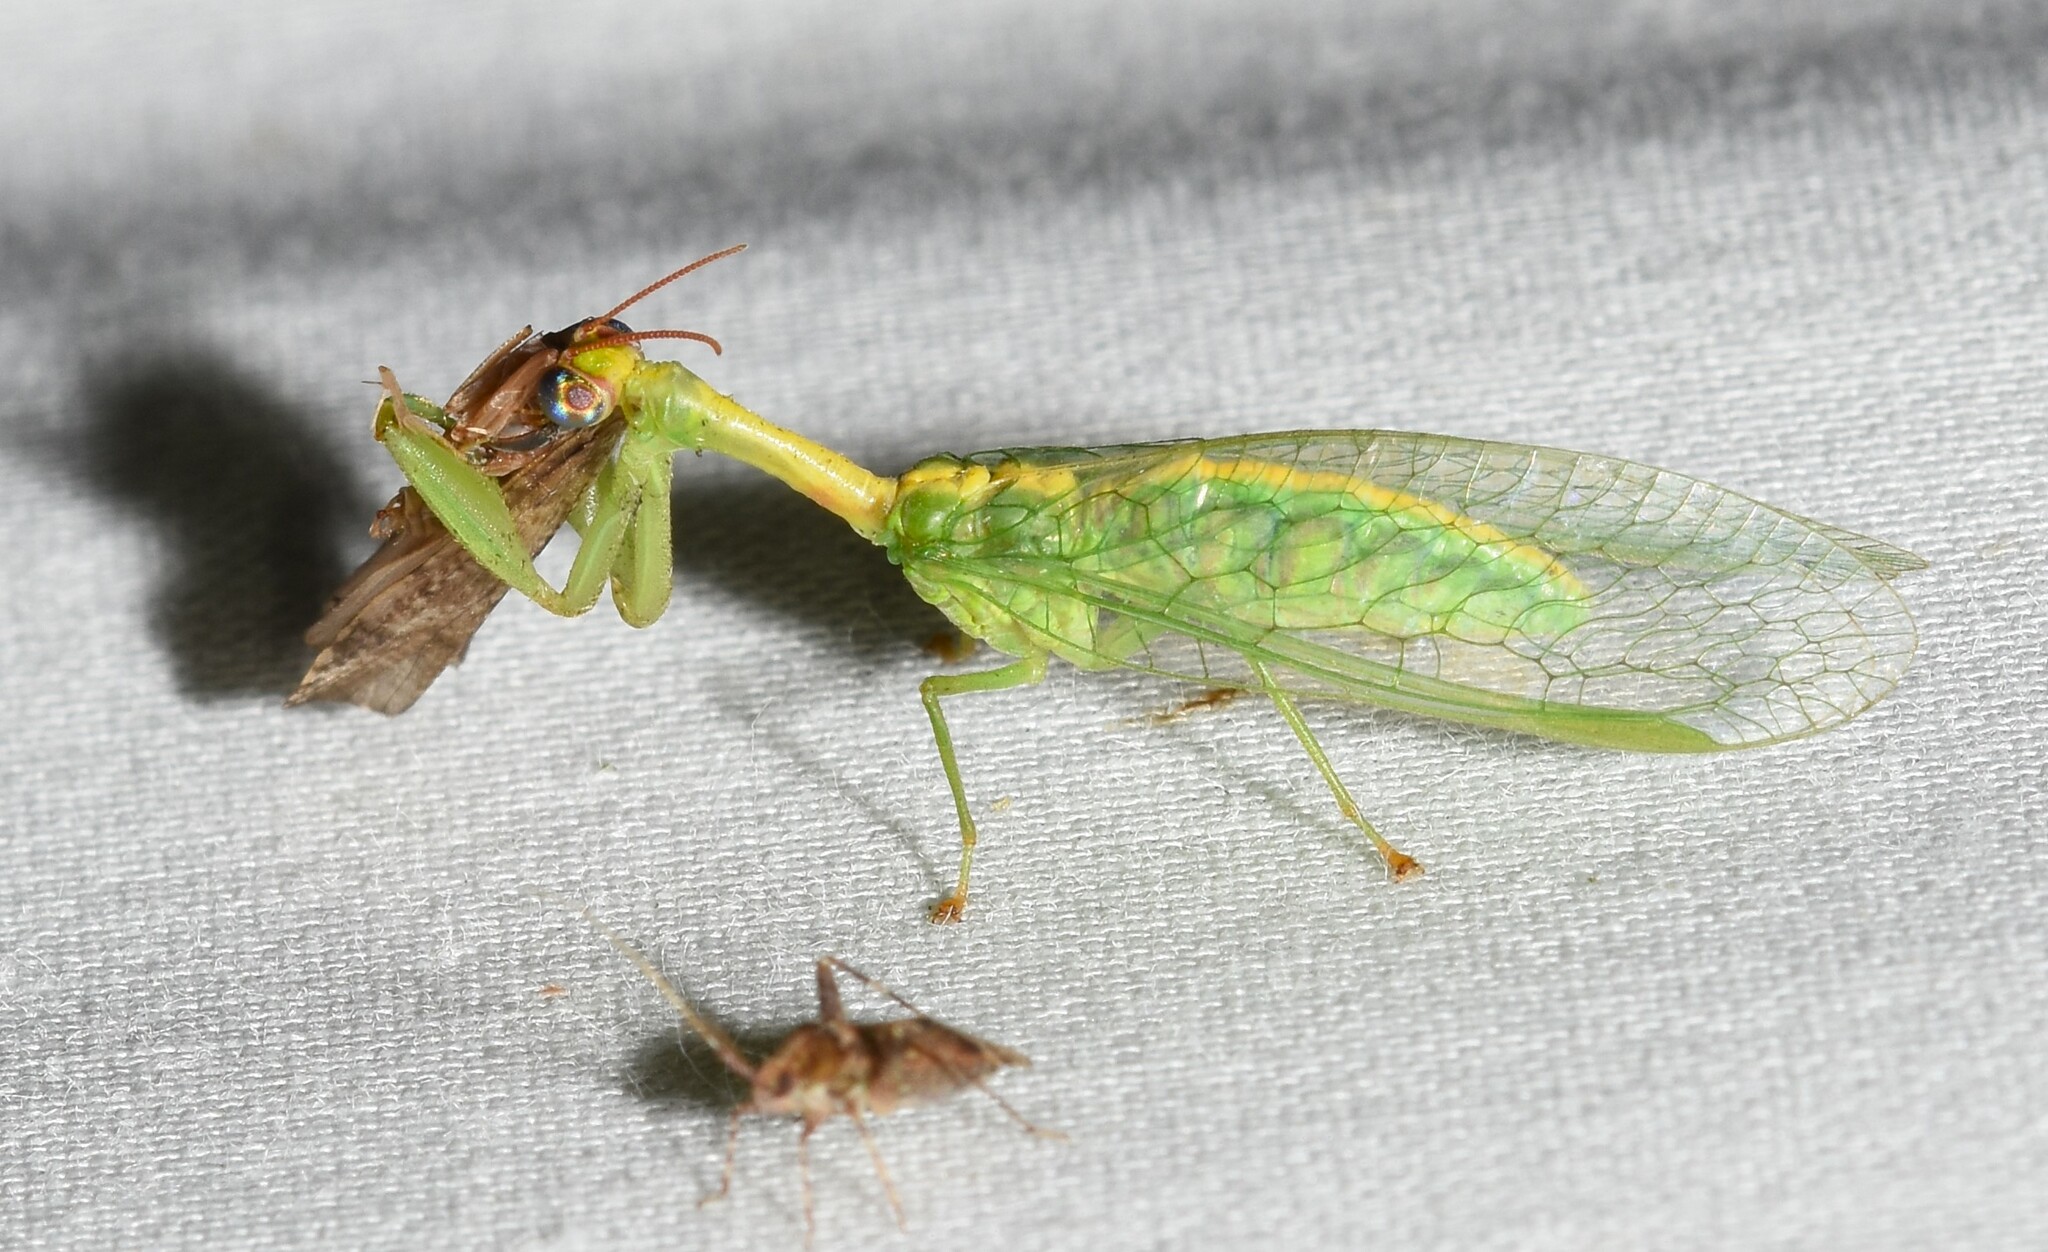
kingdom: Animalia
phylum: Arthropoda
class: Insecta
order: Neuroptera
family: Mantispidae
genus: Zeugomantispa
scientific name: Zeugomantispa minuta
